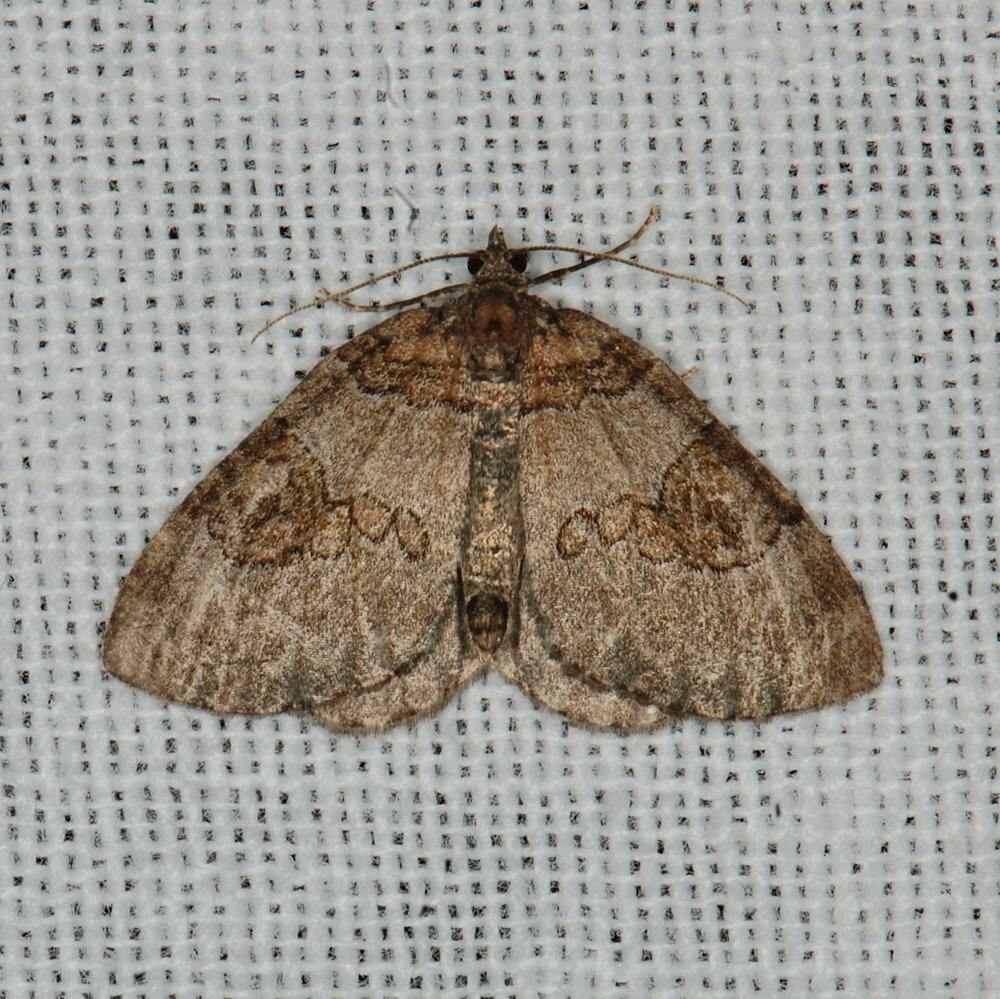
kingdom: Animalia
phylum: Arthropoda
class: Insecta
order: Lepidoptera
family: Geometridae
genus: Plemyria
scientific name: Plemyria georgii
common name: George's carpet moth
